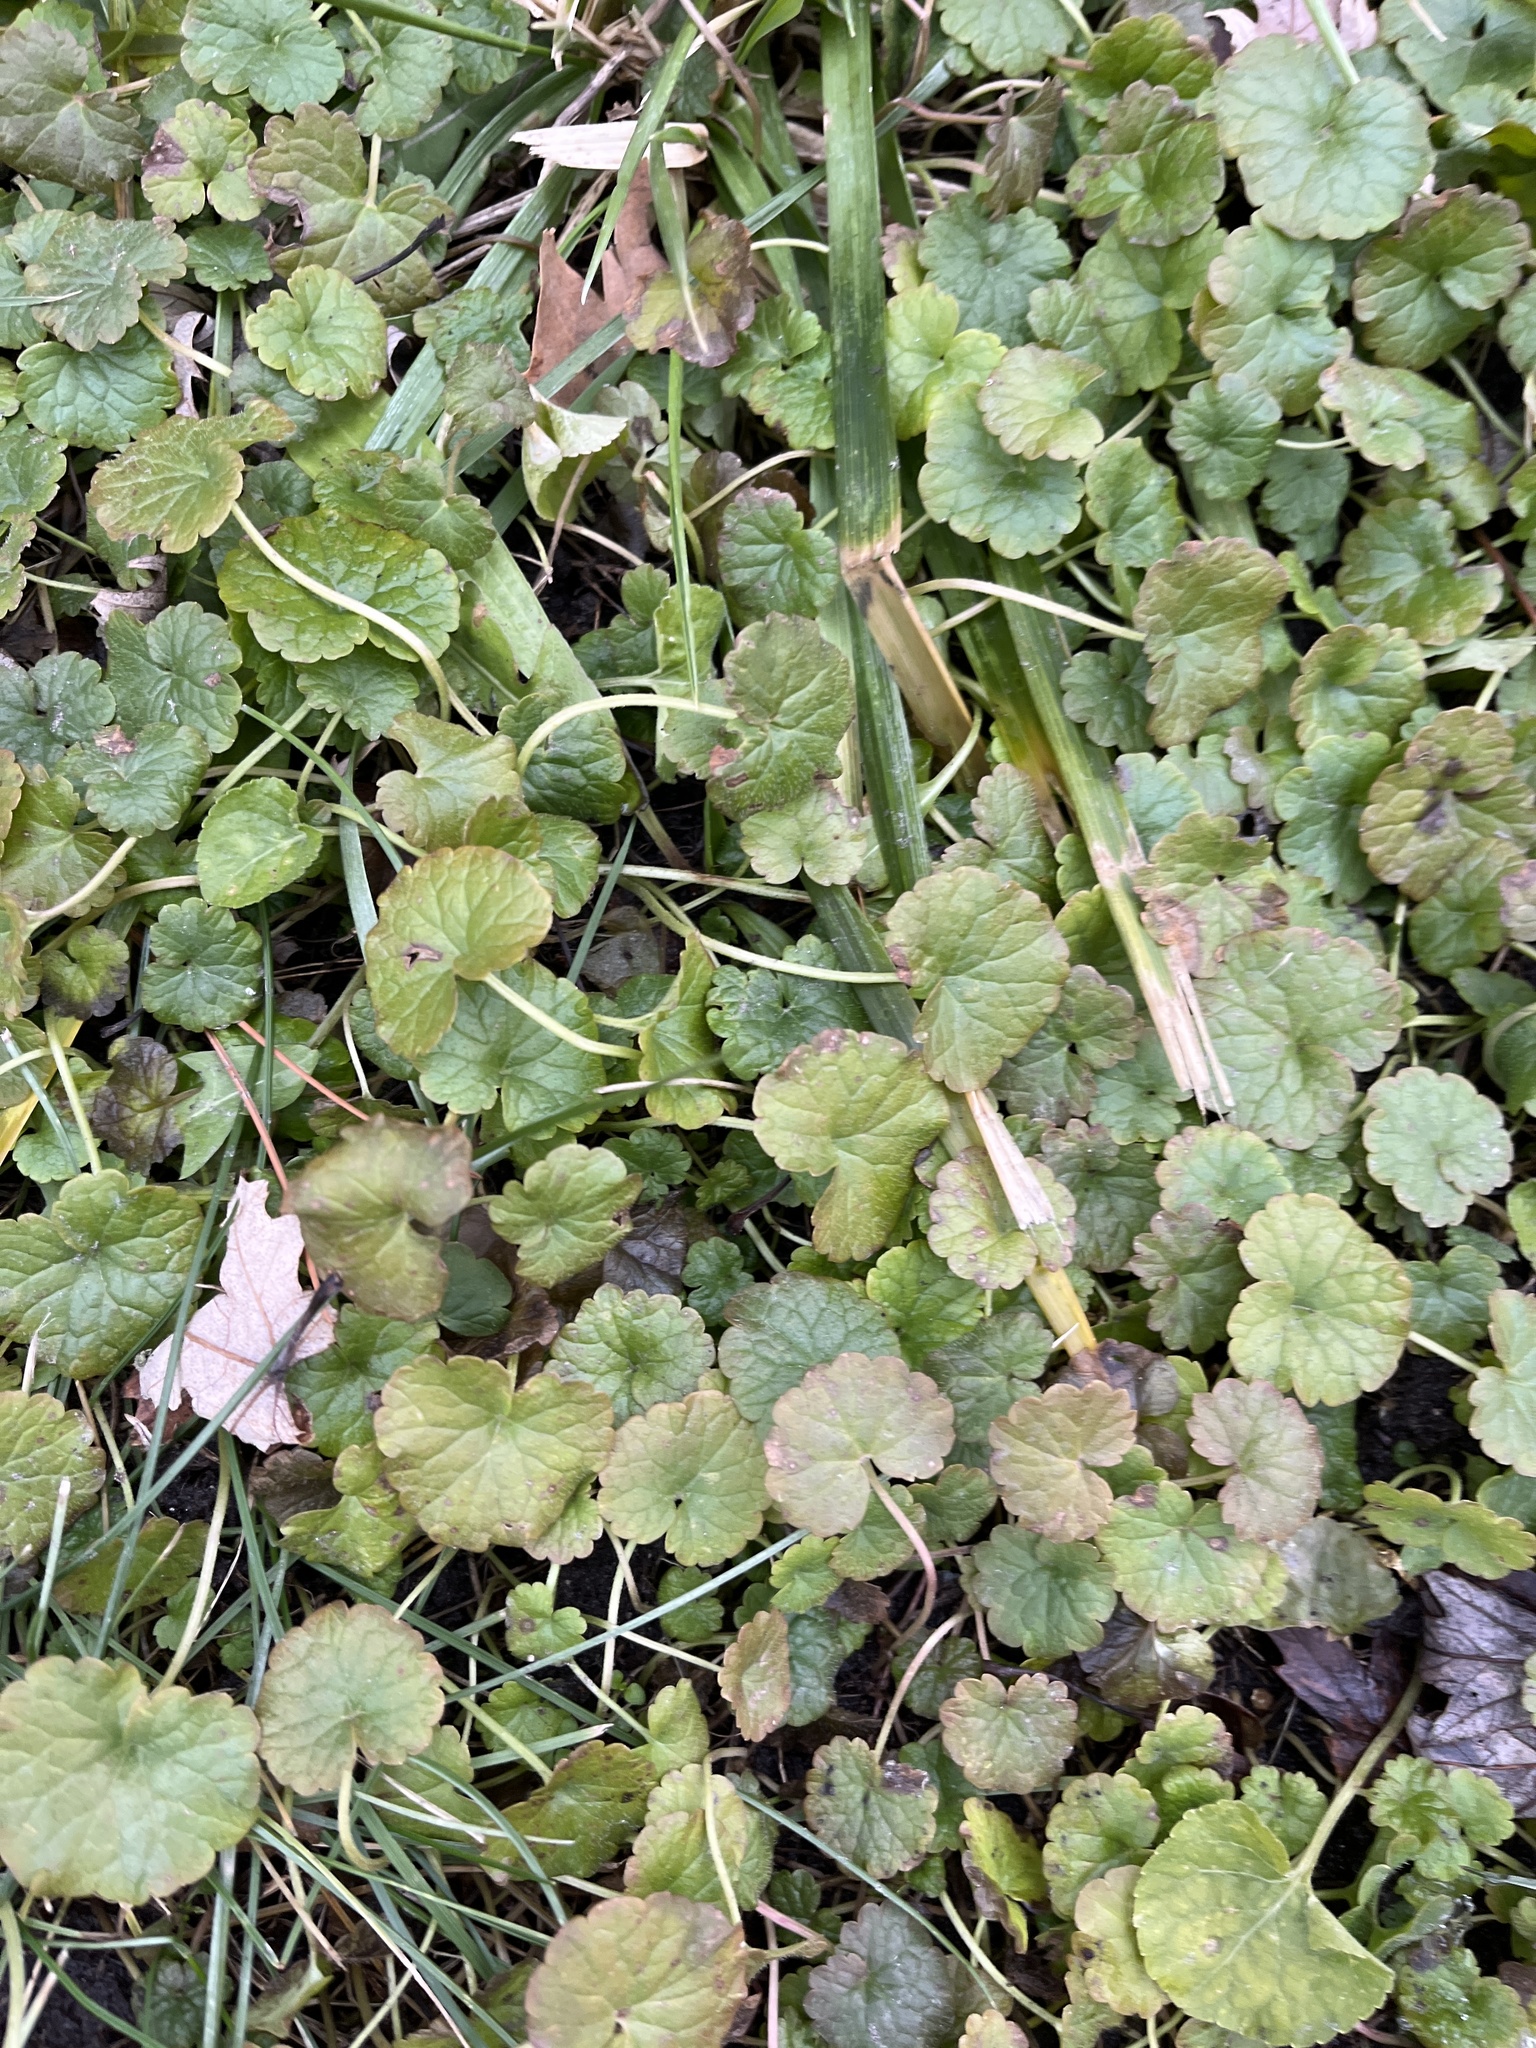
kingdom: Plantae
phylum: Tracheophyta
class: Magnoliopsida
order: Lamiales
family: Lamiaceae
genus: Glechoma
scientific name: Glechoma hederacea
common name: Ground ivy
